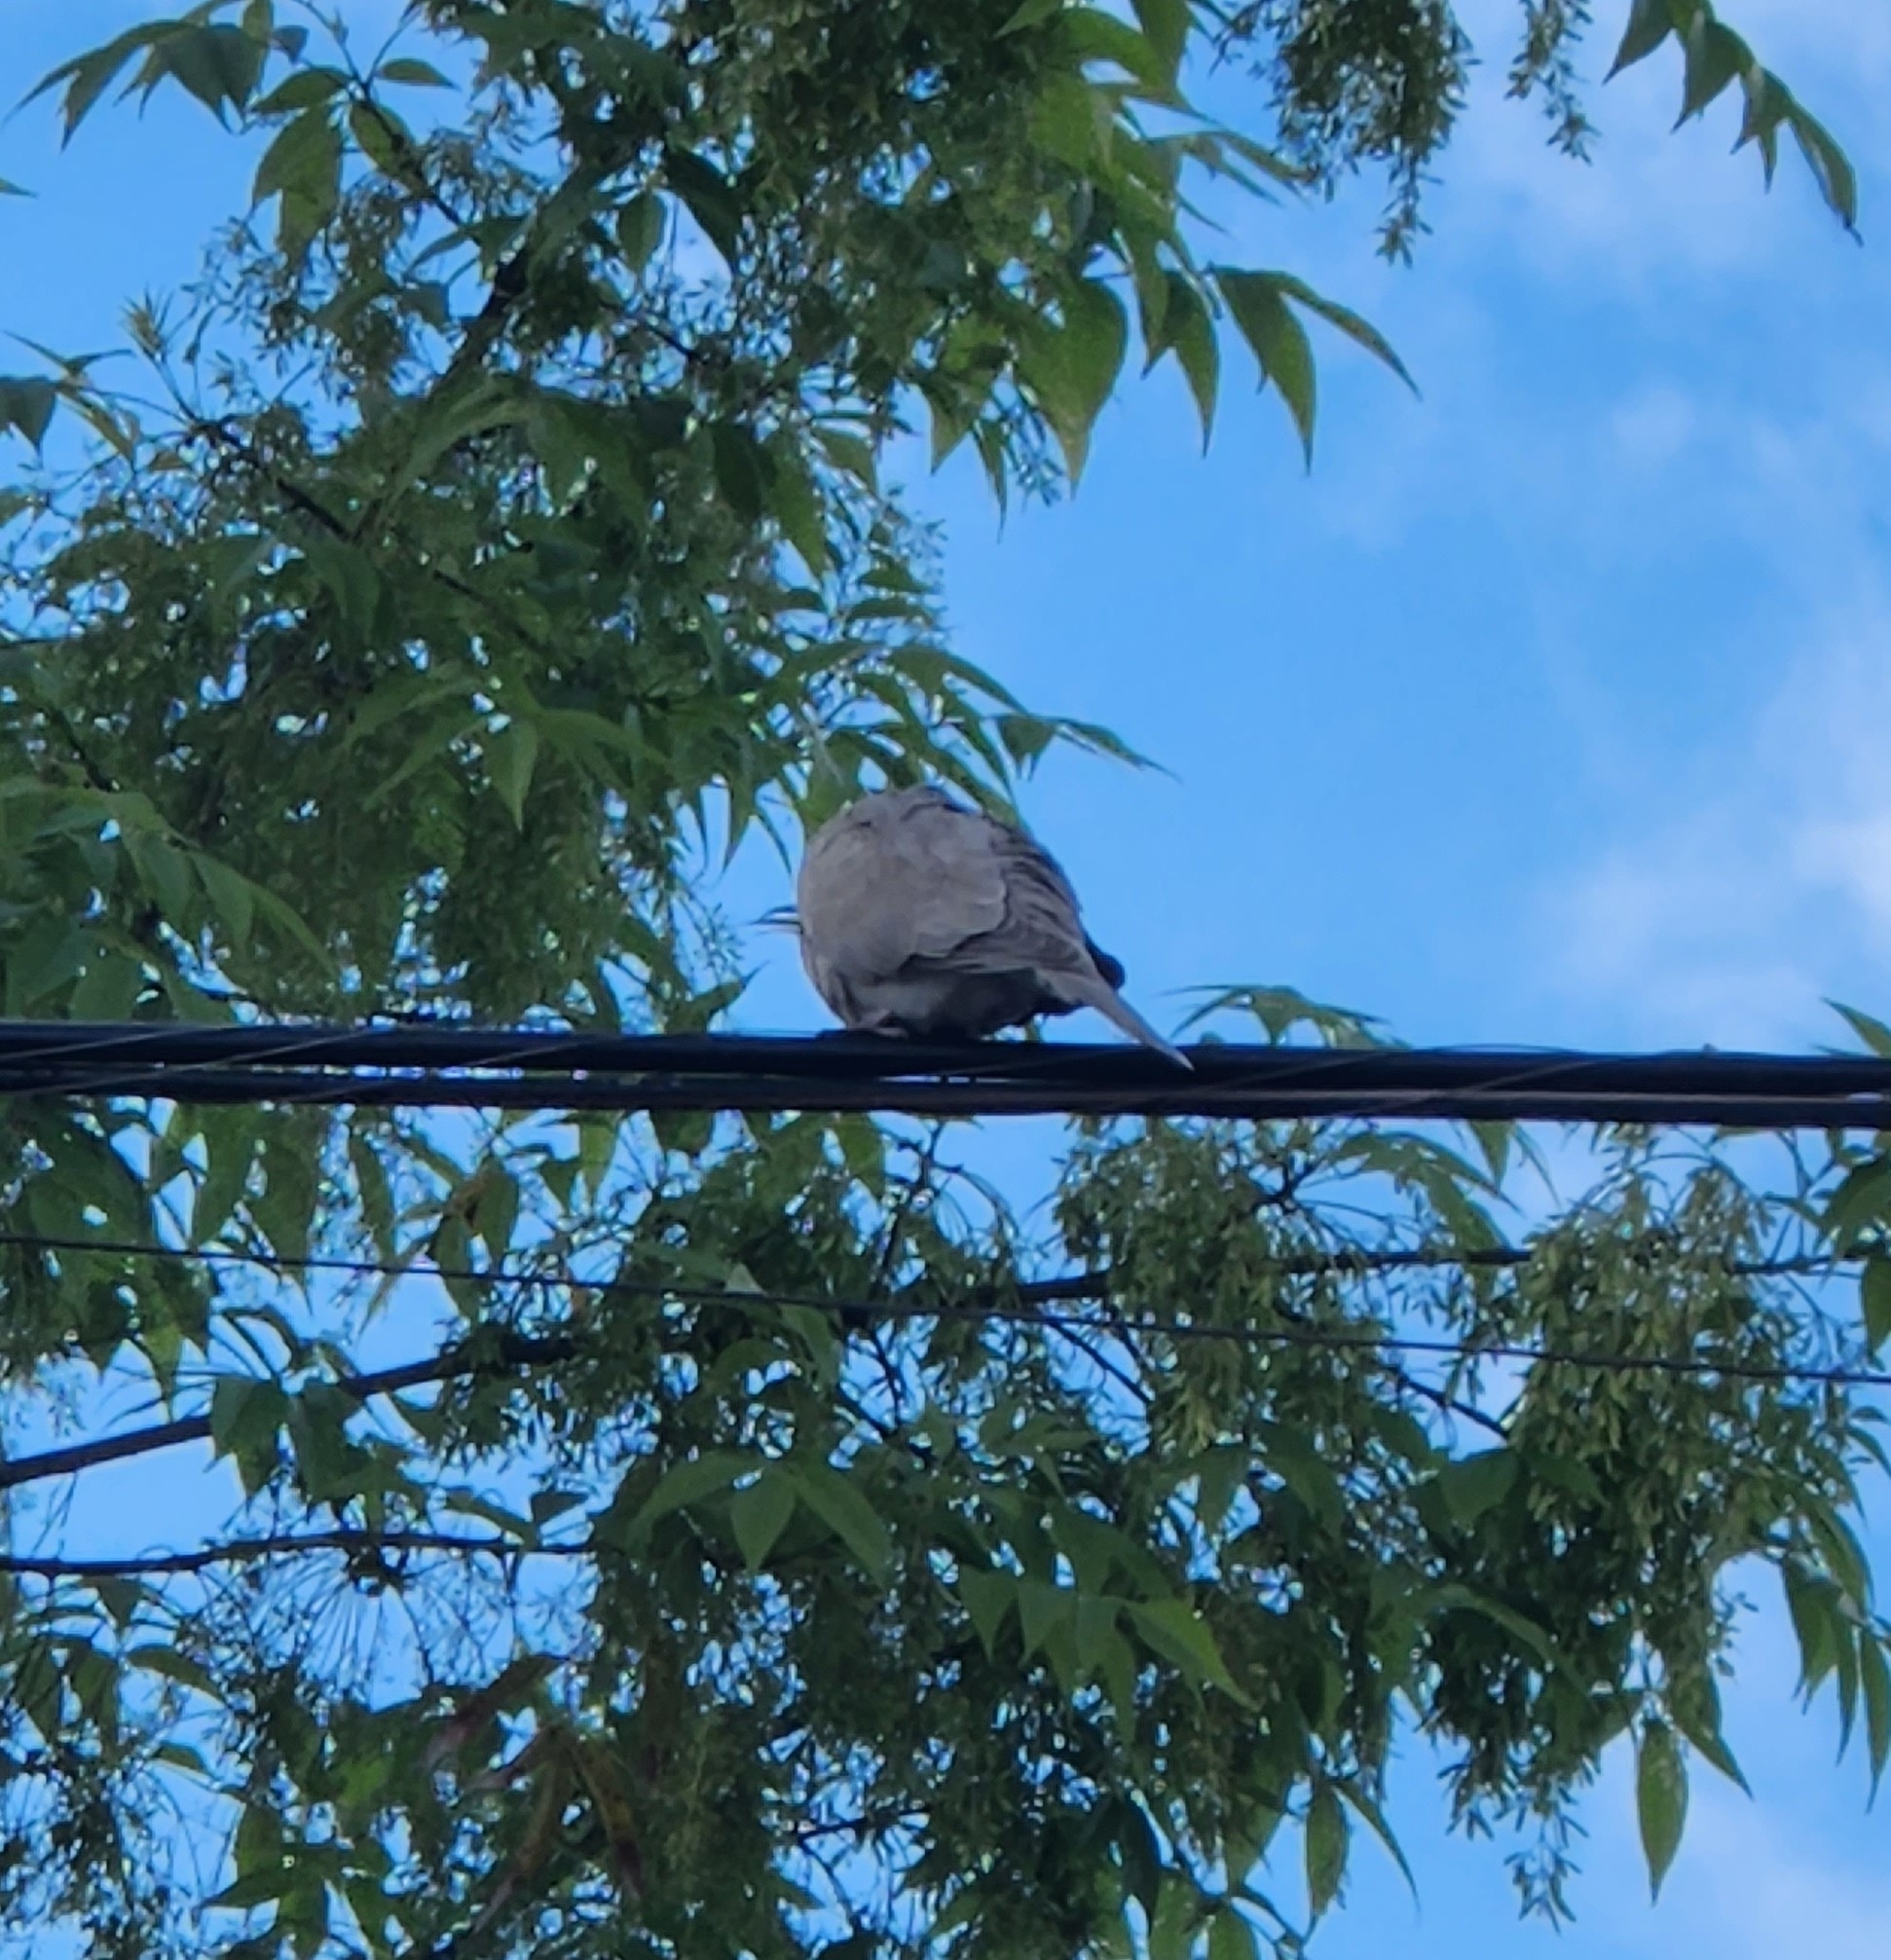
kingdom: Animalia
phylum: Chordata
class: Aves
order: Columbiformes
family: Columbidae
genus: Streptopelia
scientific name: Streptopelia decaocto
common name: Eurasian collared dove
